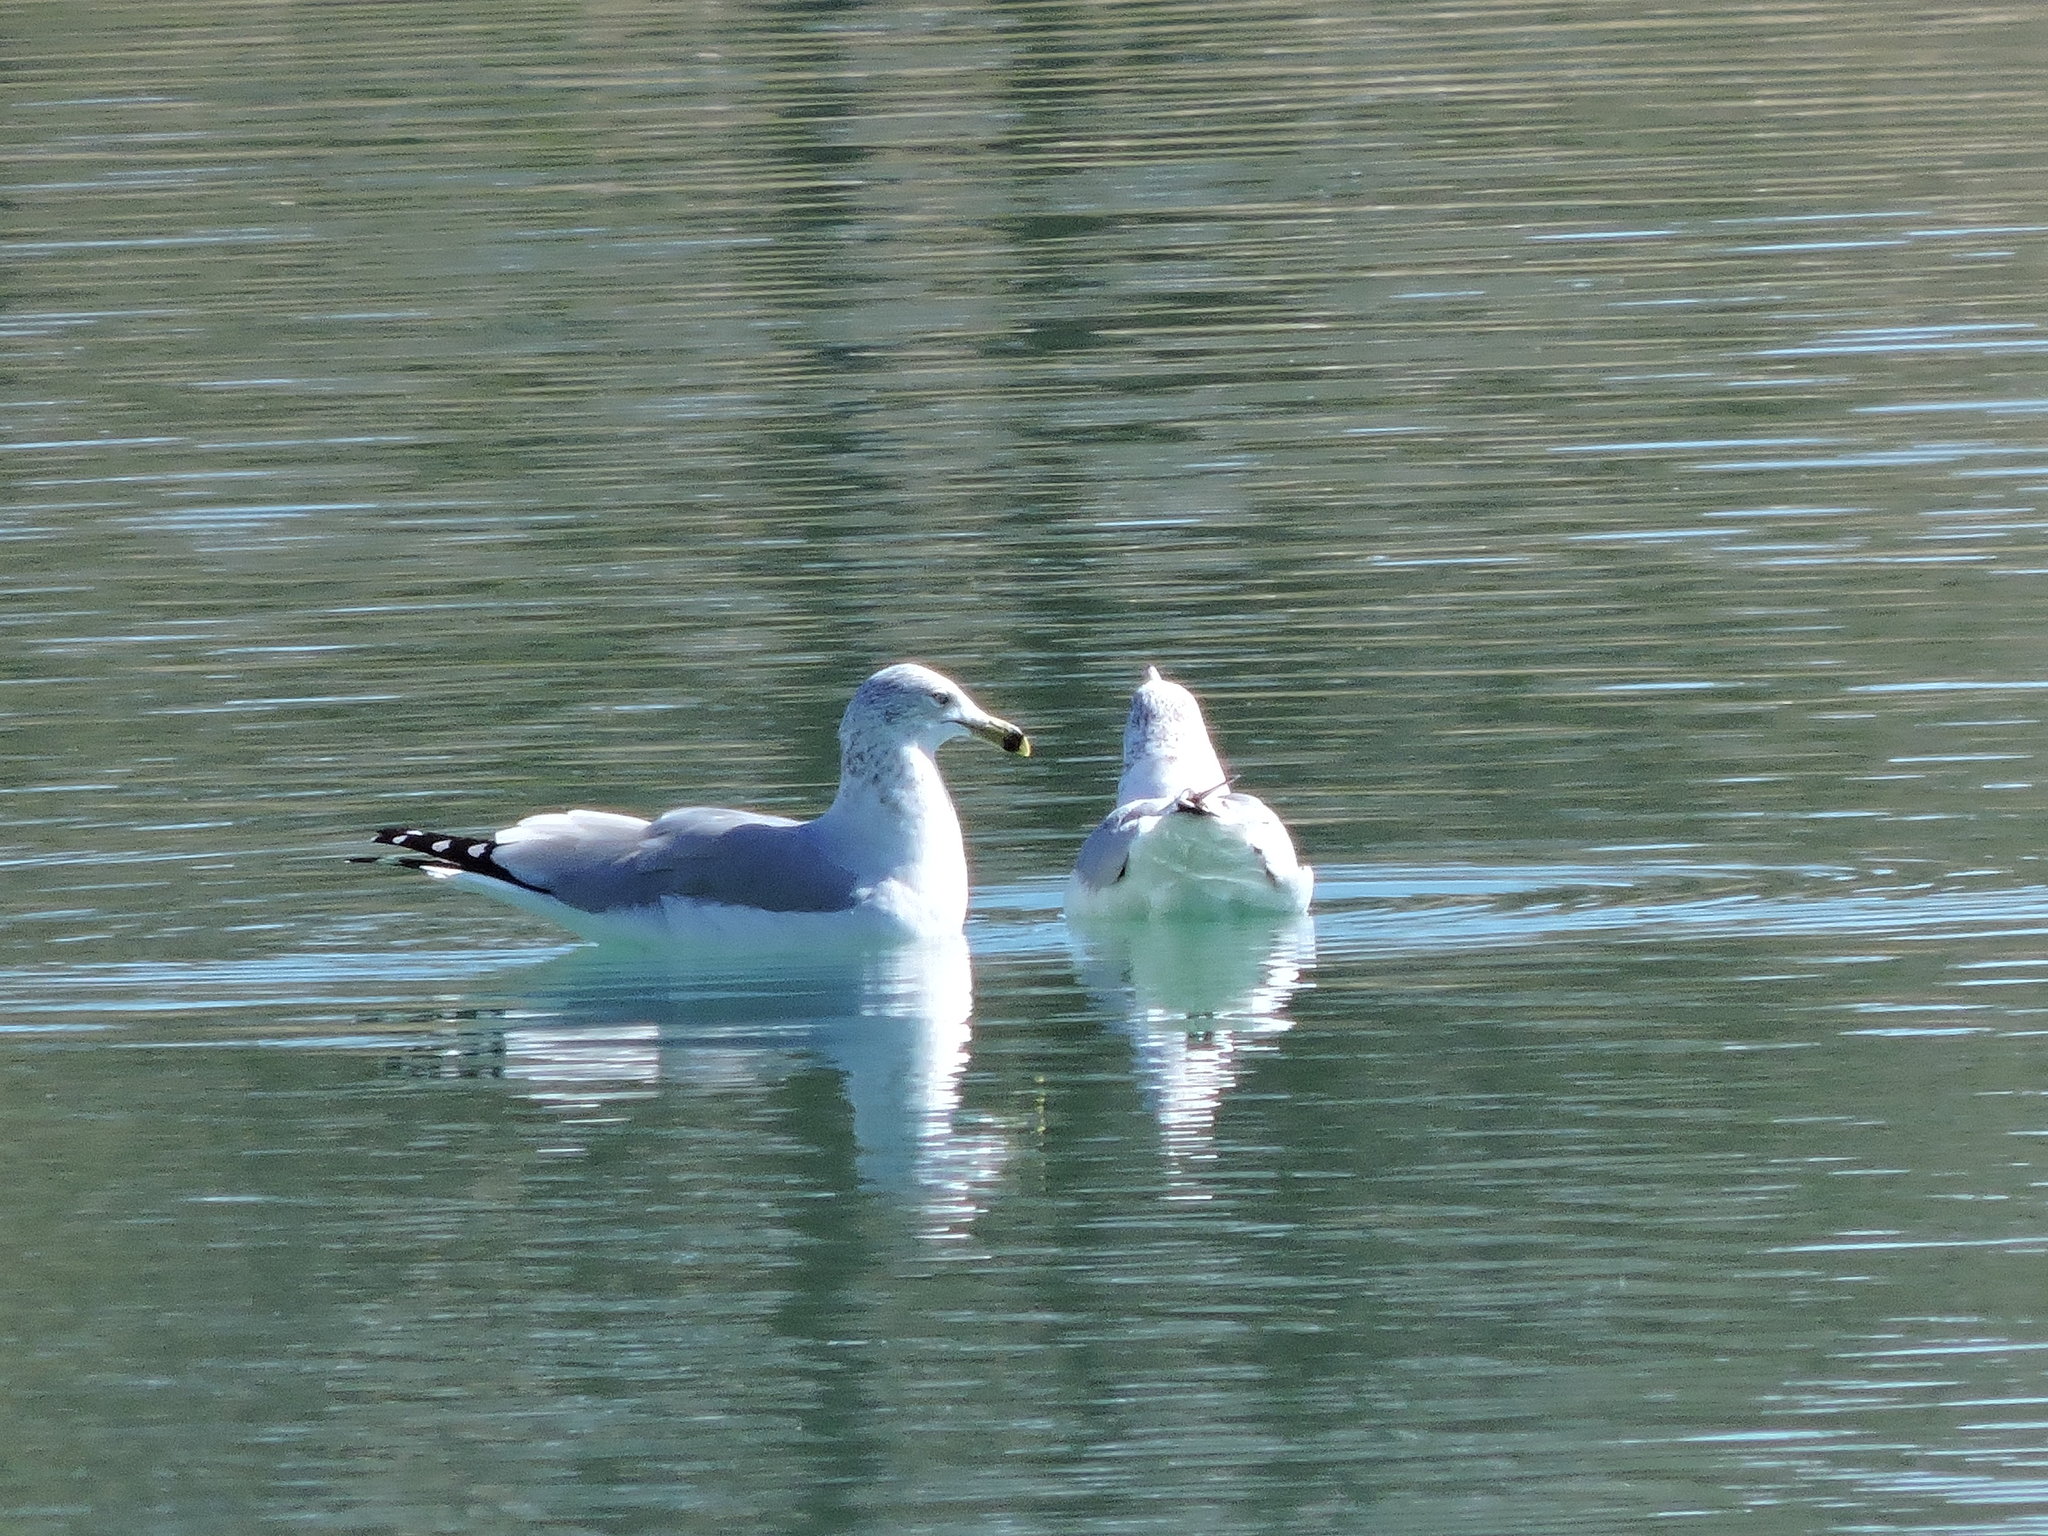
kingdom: Animalia
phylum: Chordata
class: Aves
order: Charadriiformes
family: Laridae
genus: Larus
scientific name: Larus delawarensis
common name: Ring-billed gull
